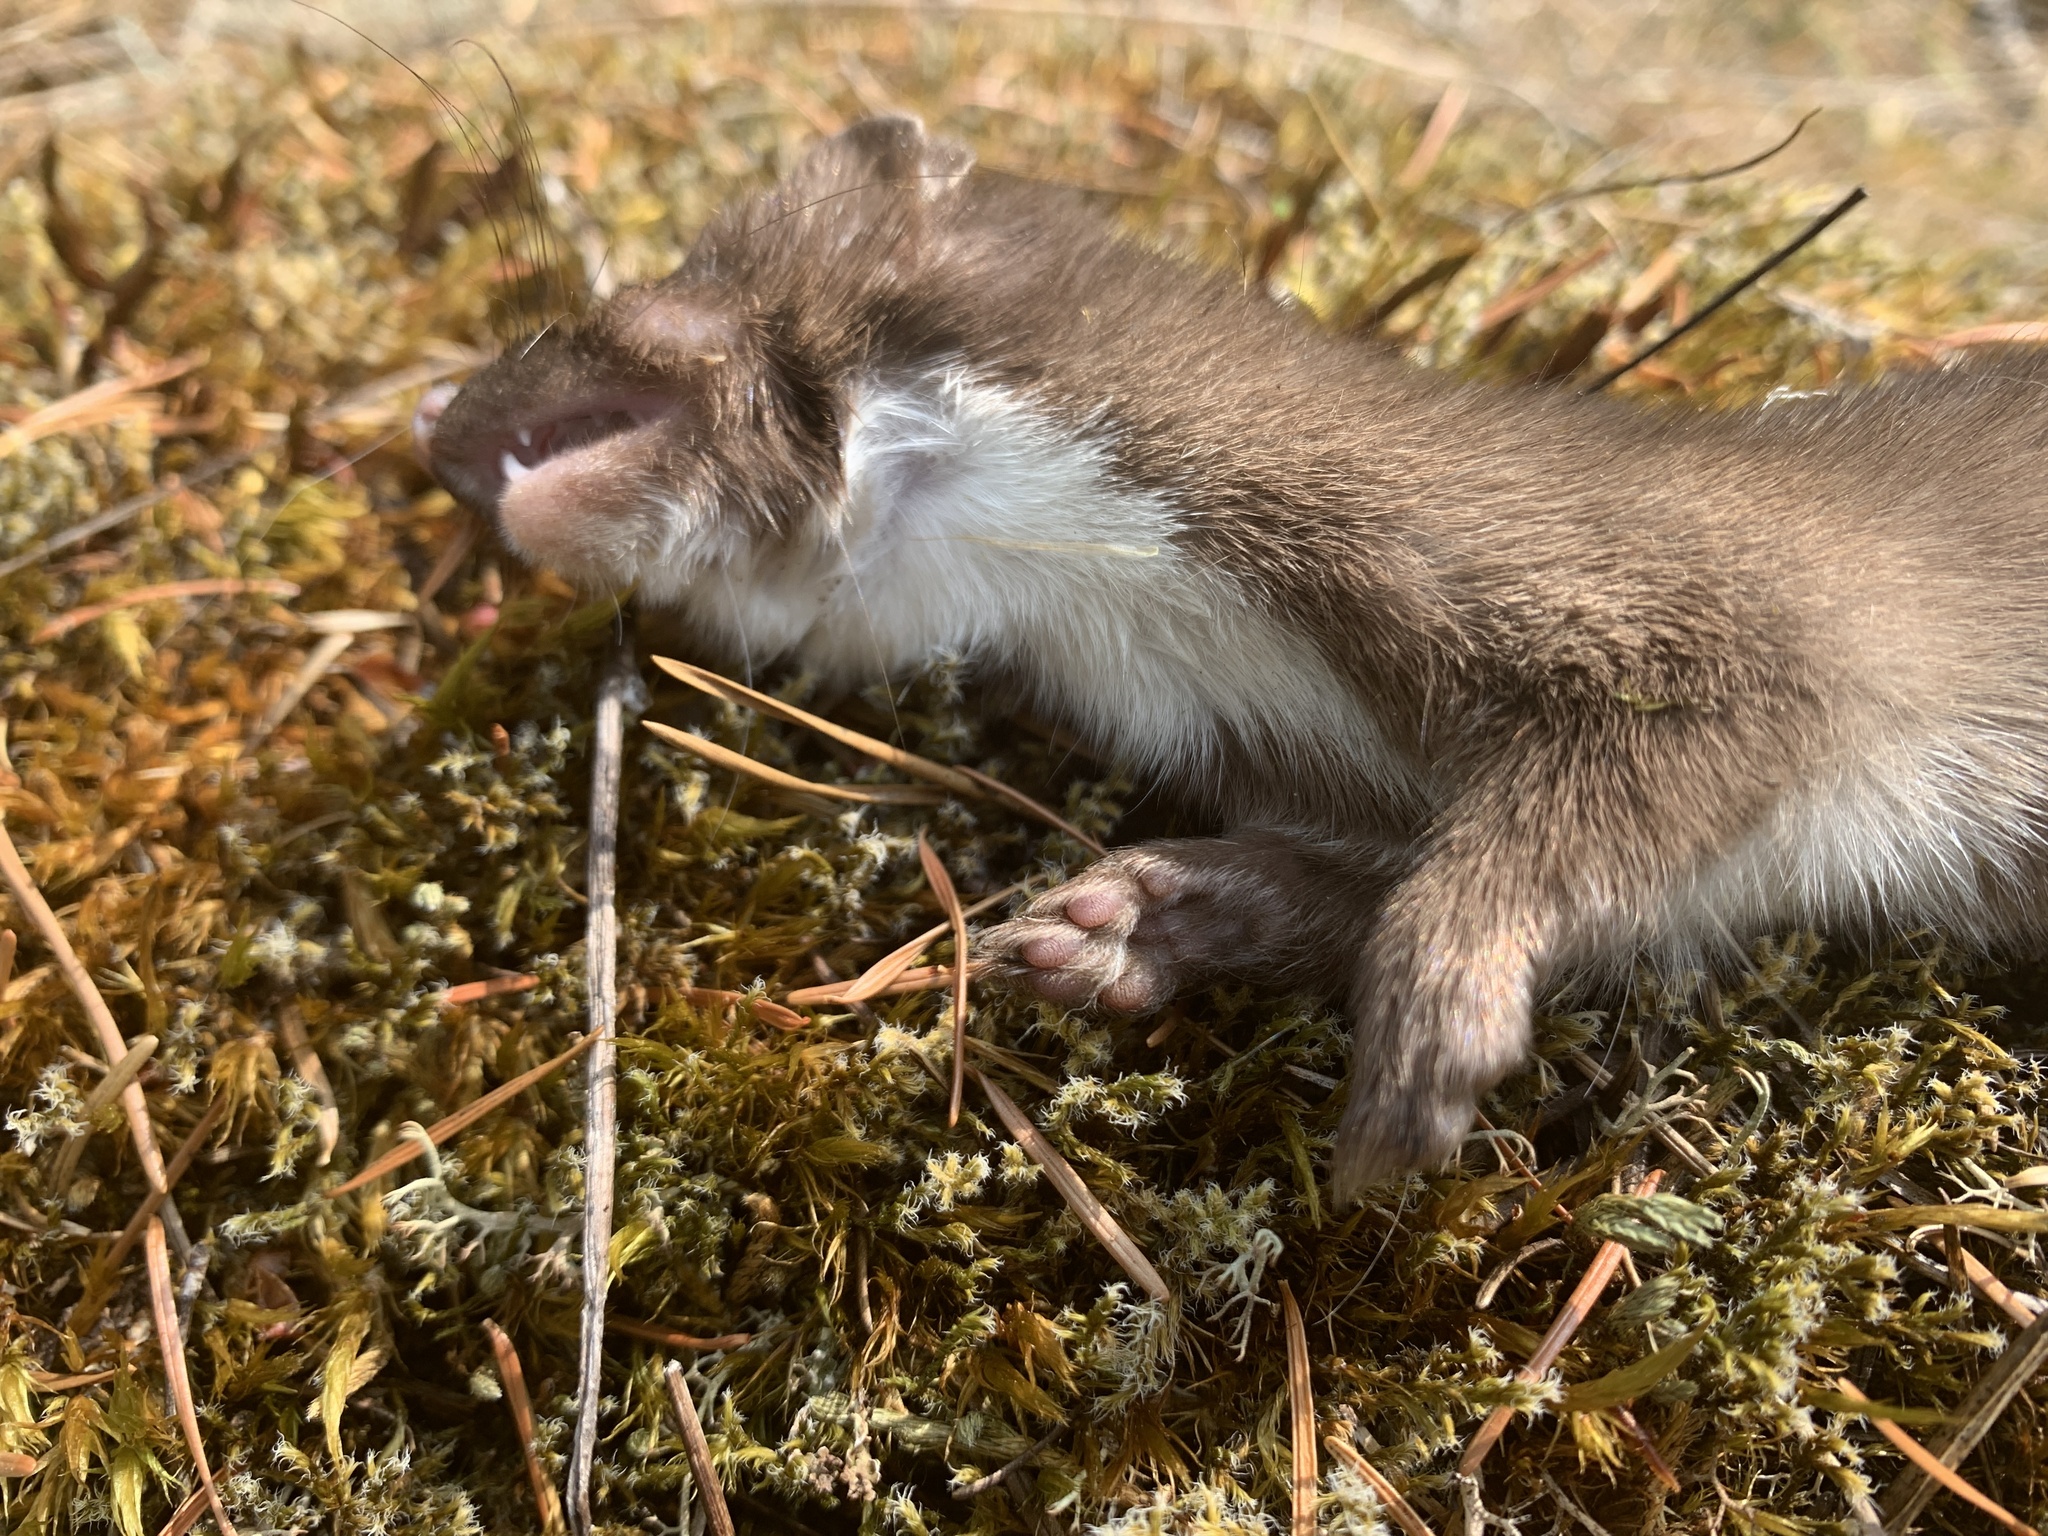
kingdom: Animalia
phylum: Chordata
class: Mammalia
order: Carnivora
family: Mustelidae
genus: Mustela
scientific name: Mustela erminea
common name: Stoat
